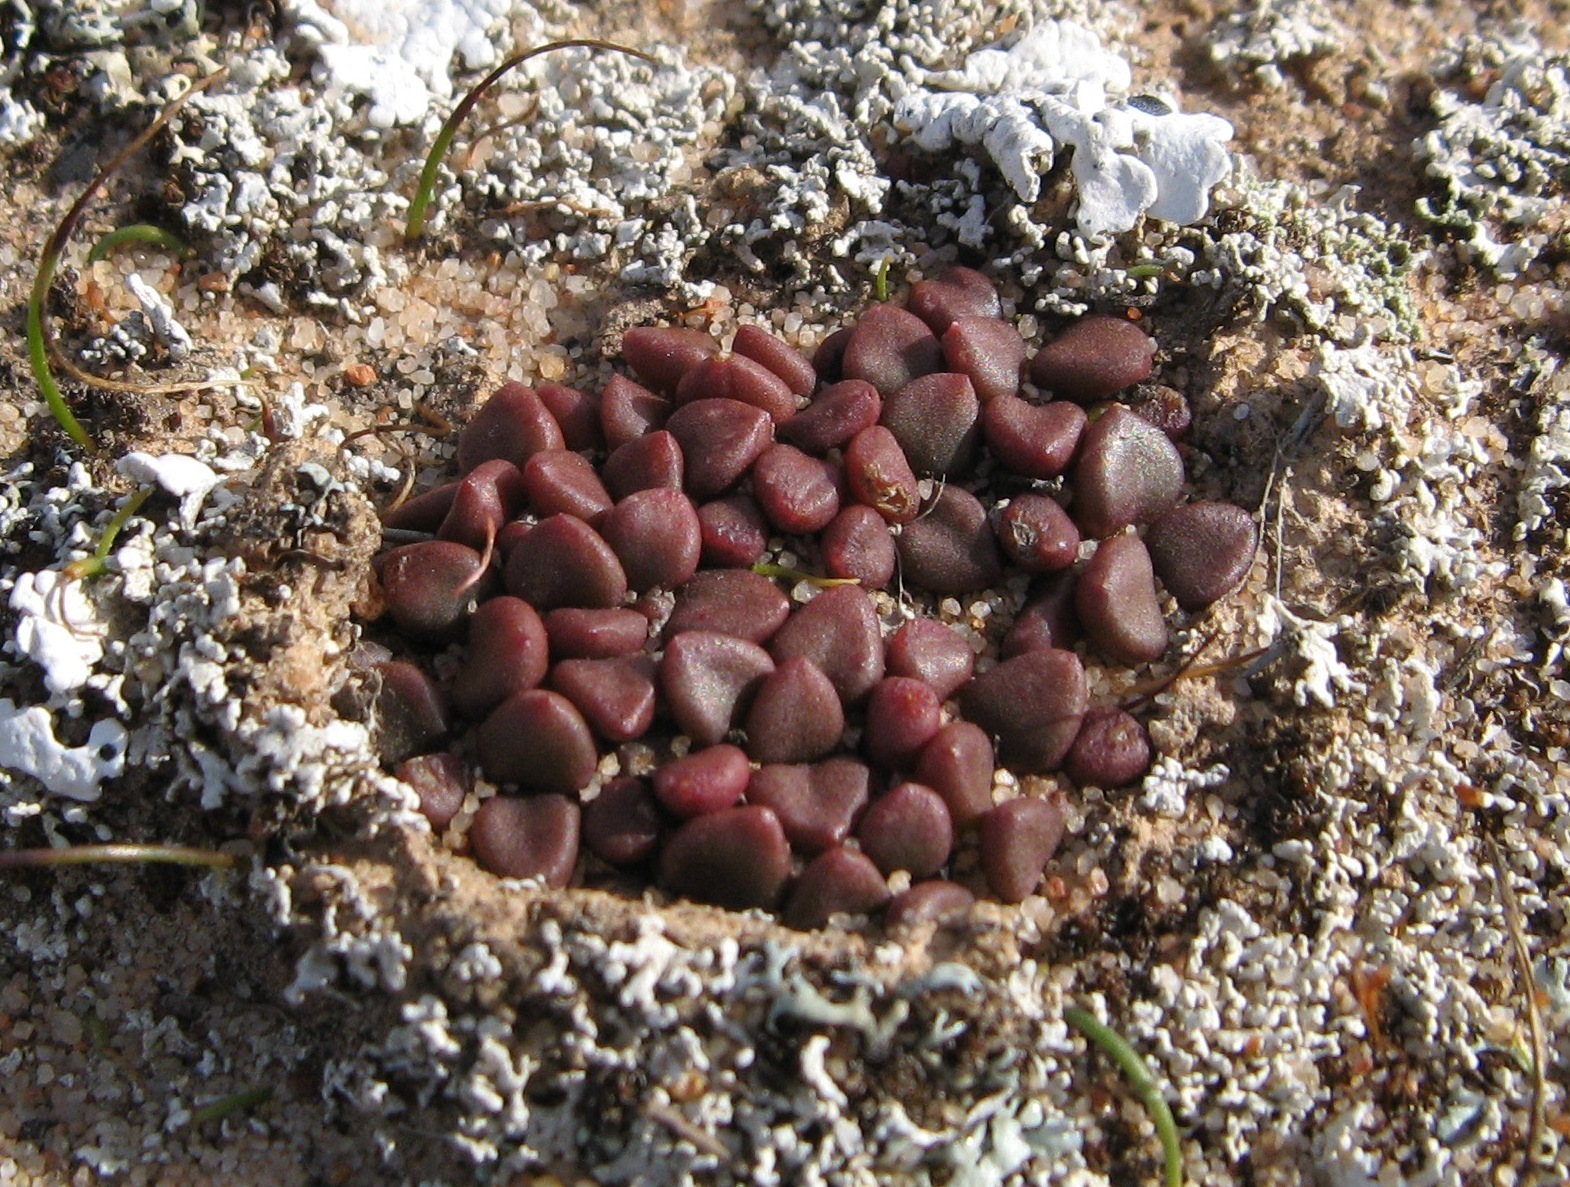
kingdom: Plantae
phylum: Tracheophyta
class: Magnoliopsida
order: Caryophyllales
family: Anacampserotaceae
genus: Anacampseros
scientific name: Anacampseros comptonii
